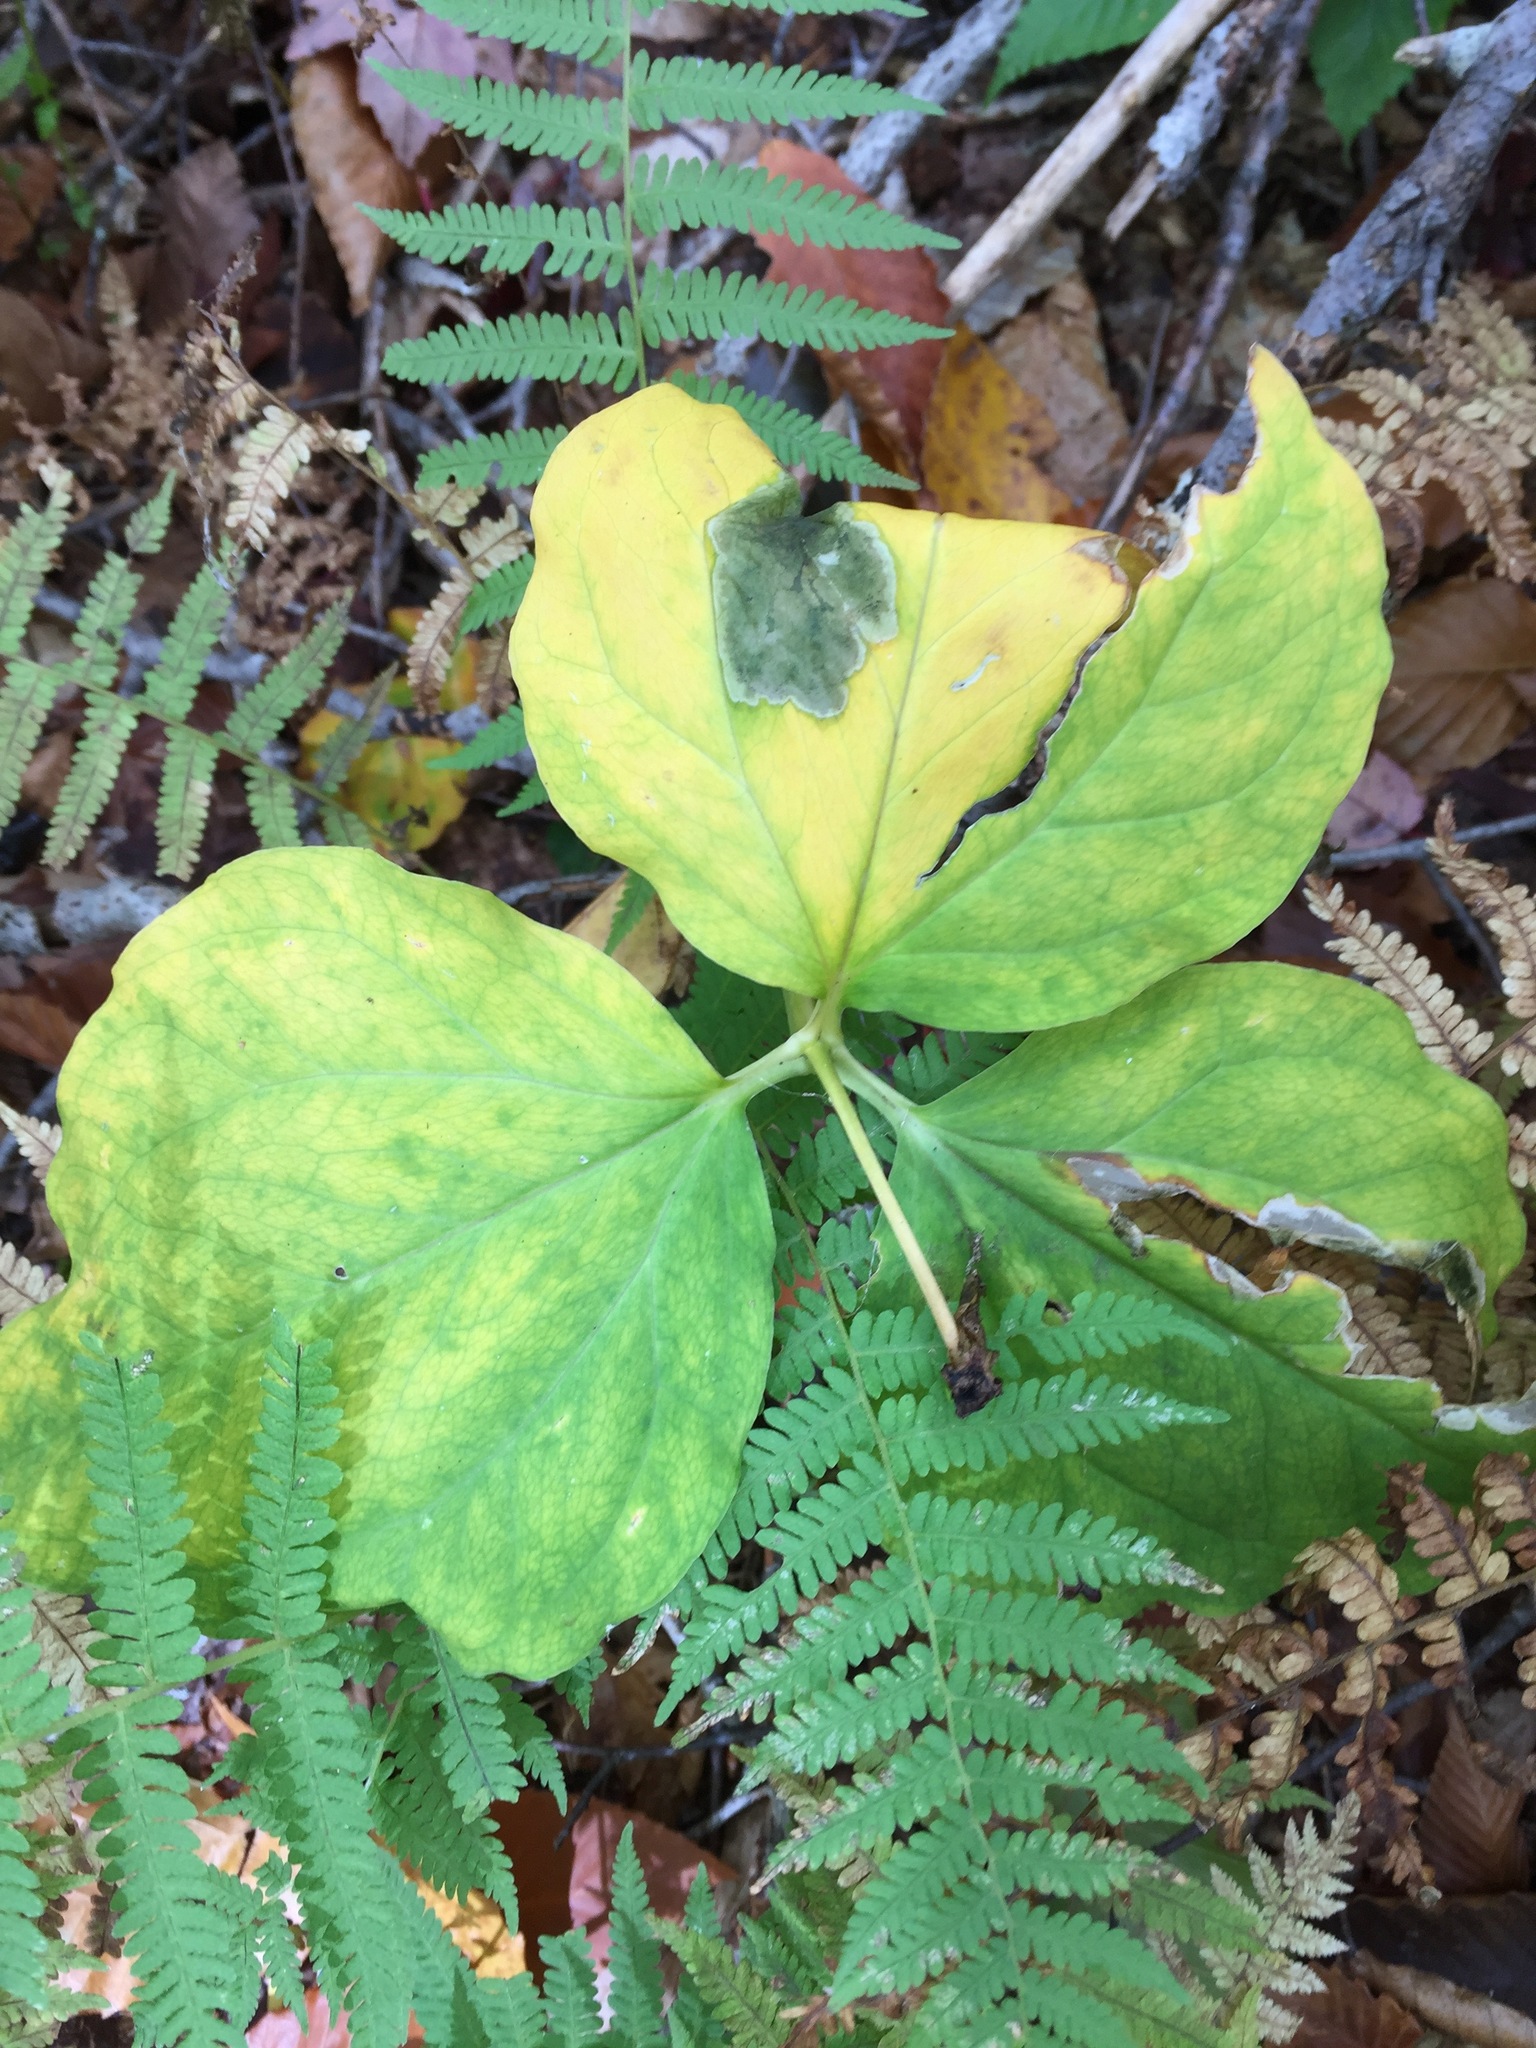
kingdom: Plantae
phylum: Tracheophyta
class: Liliopsida
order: Liliales
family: Melanthiaceae
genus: Trillium
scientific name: Trillium undulatum
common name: Paint trillium
